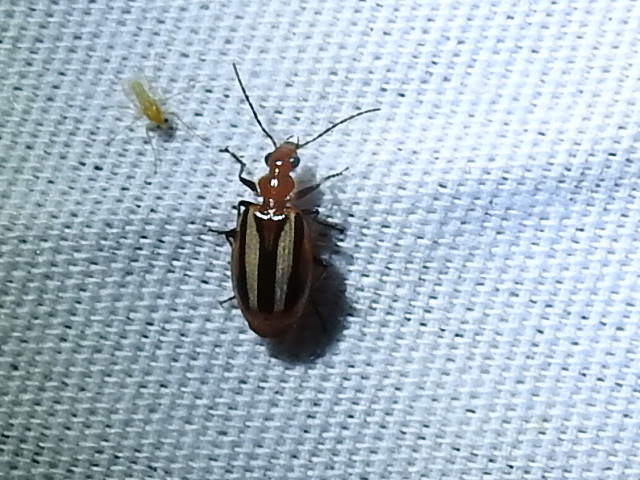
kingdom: Animalia
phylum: Arthropoda
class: Insecta
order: Coleoptera
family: Carabidae
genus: Lebia
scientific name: Lebia vittata
